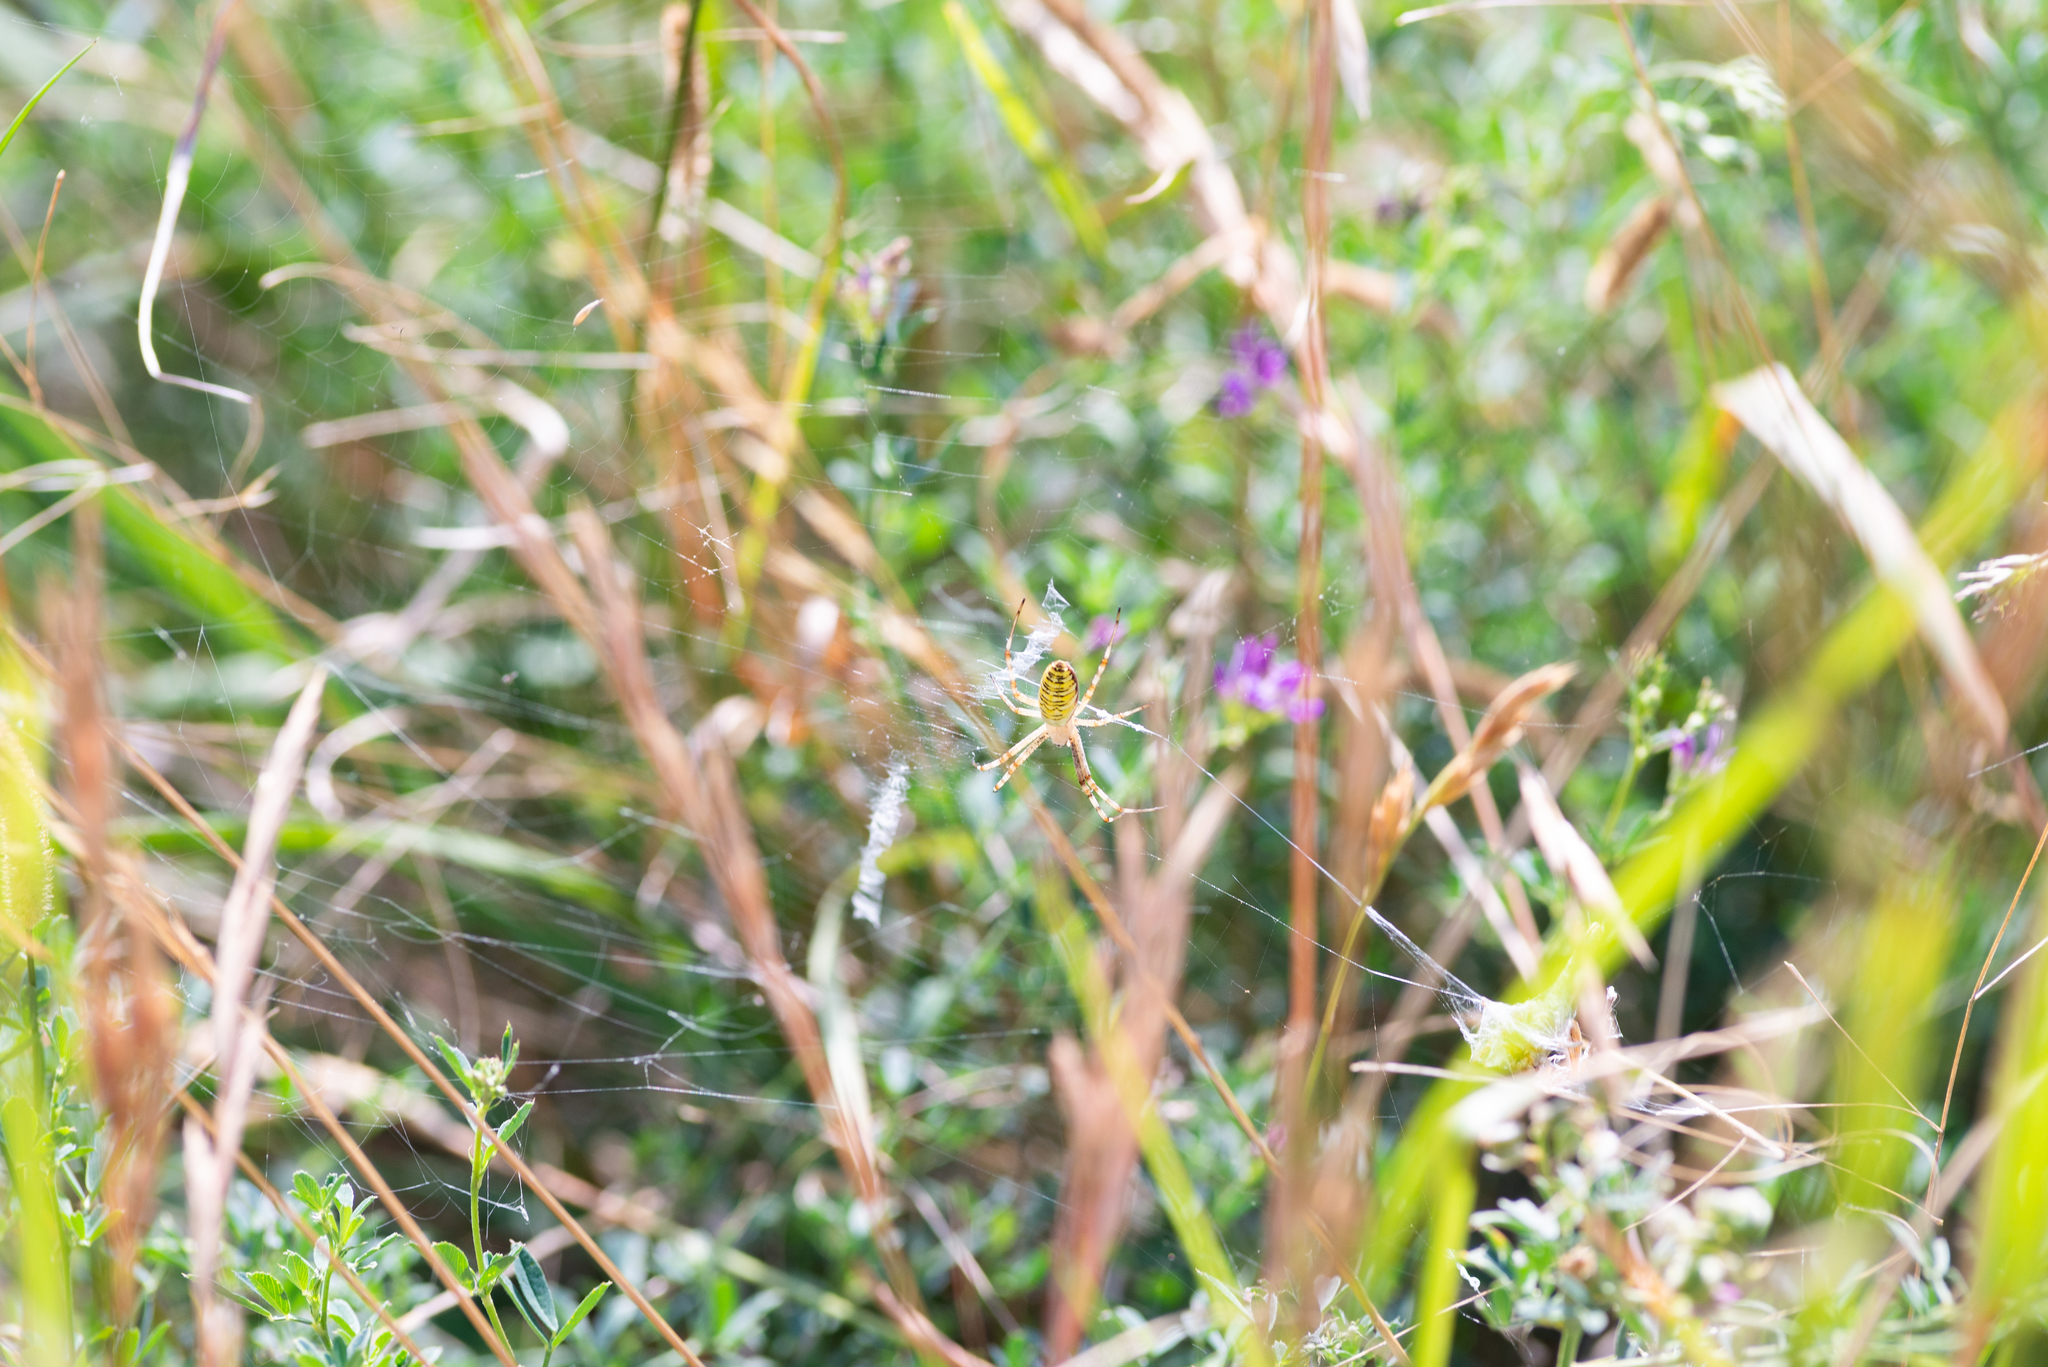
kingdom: Animalia
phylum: Arthropoda
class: Arachnida
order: Araneae
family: Araneidae
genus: Argiope
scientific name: Argiope bruennichi
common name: Wasp spider
